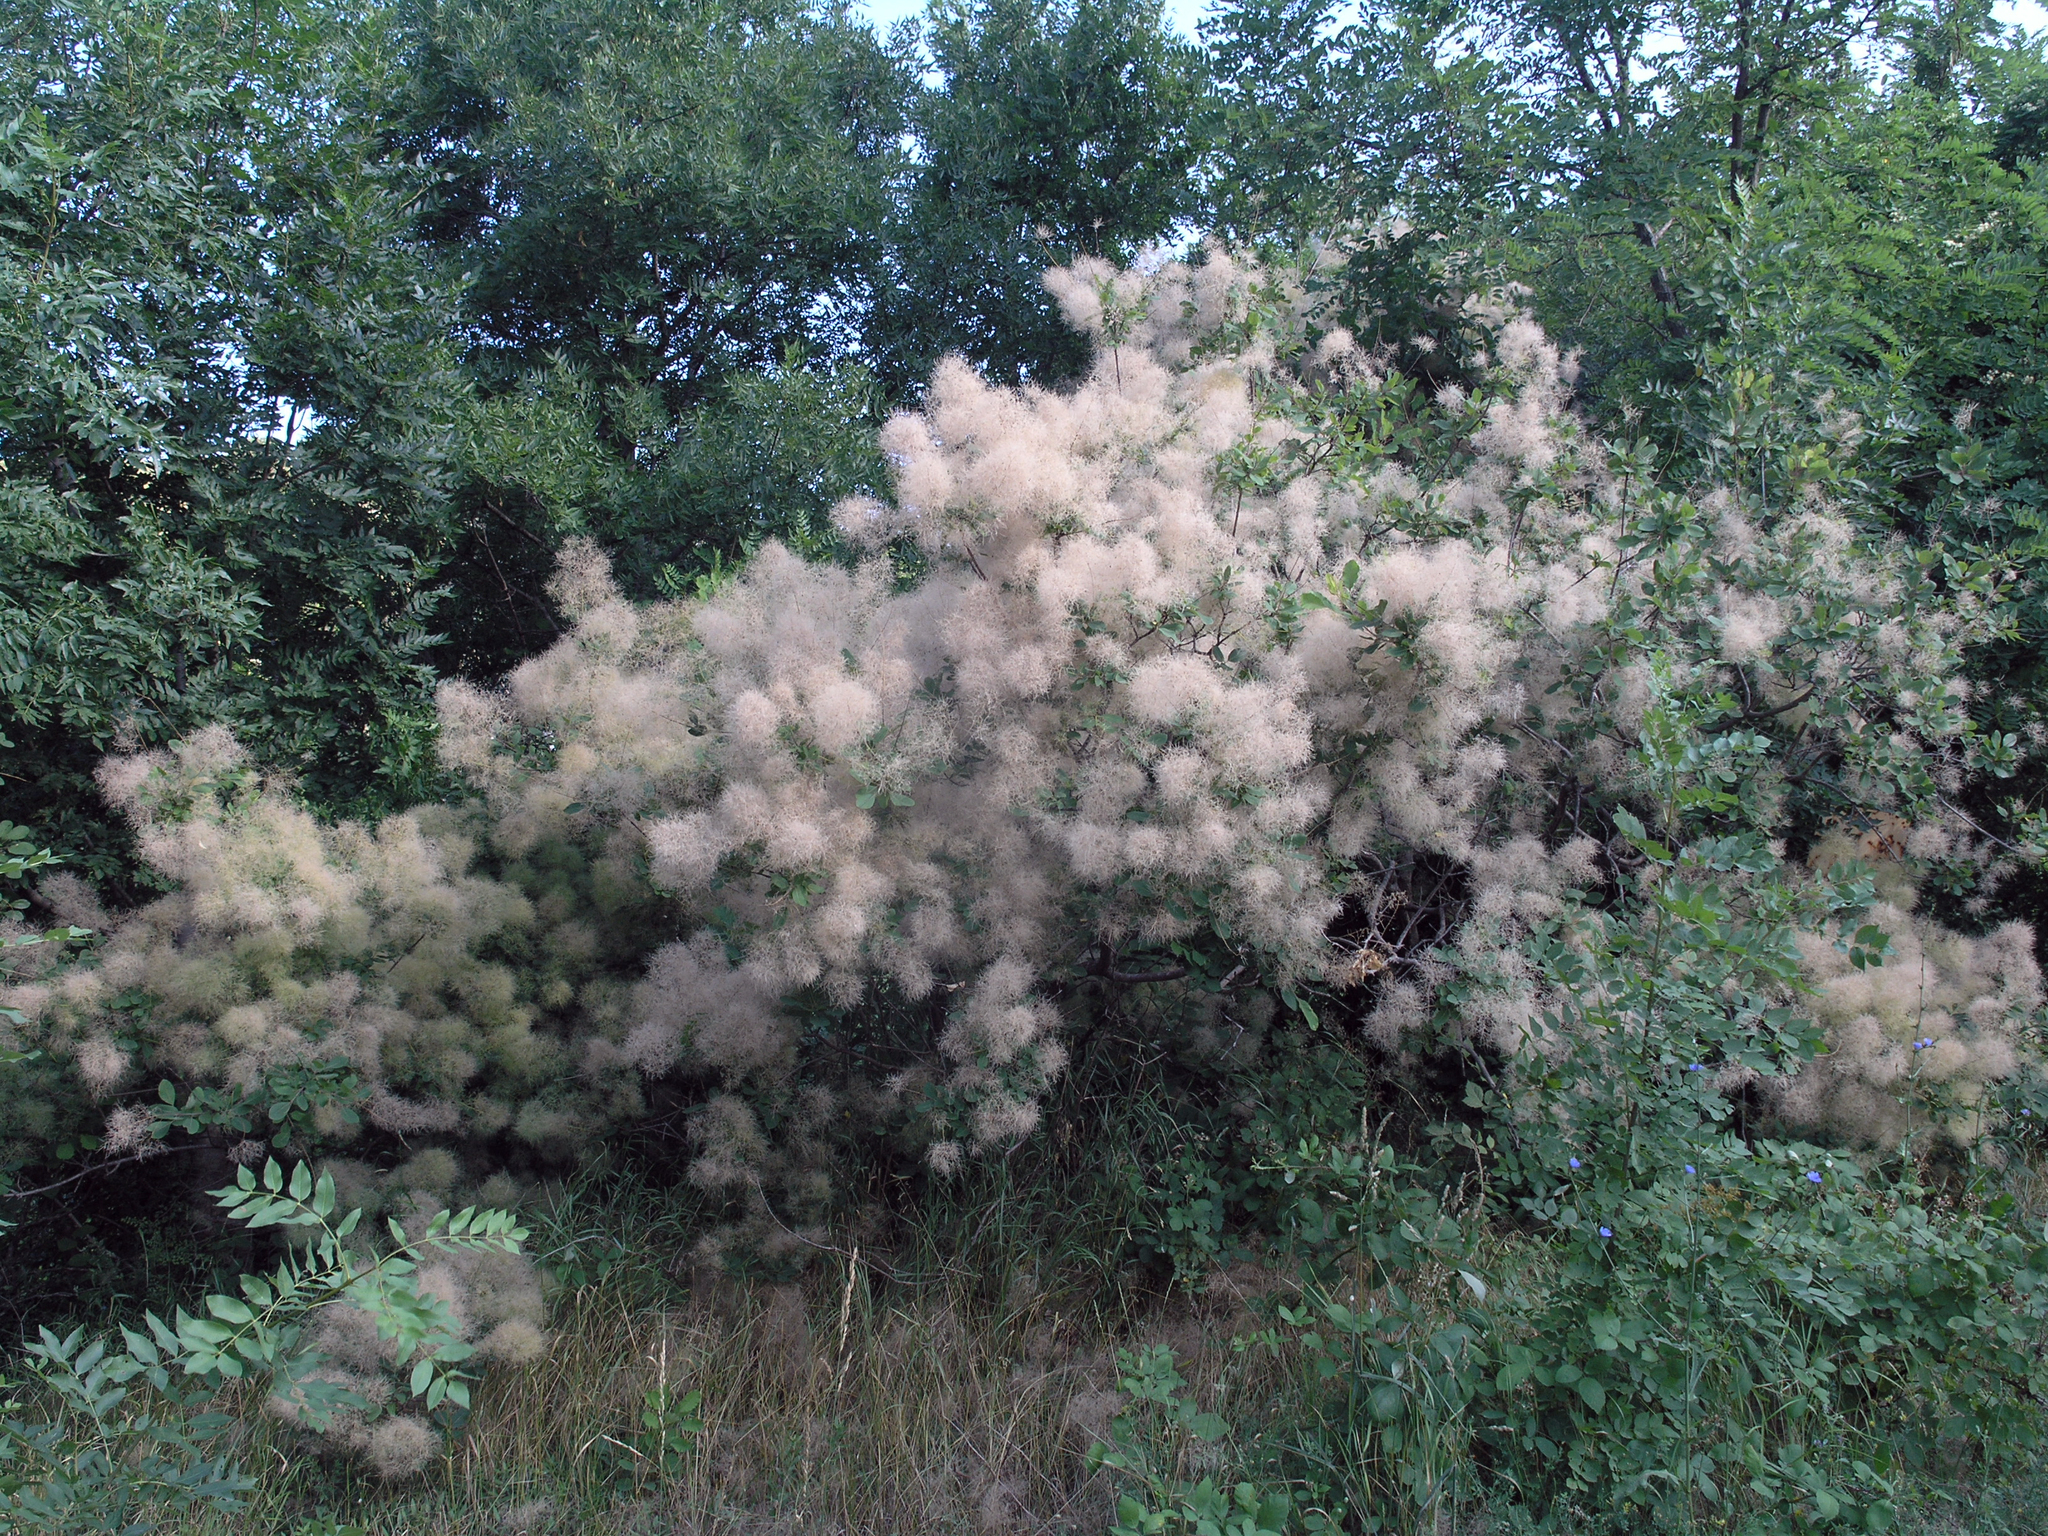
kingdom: Plantae
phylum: Tracheophyta
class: Magnoliopsida
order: Sapindales
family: Anacardiaceae
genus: Cotinus
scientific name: Cotinus coggygria
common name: Smoke-tree
